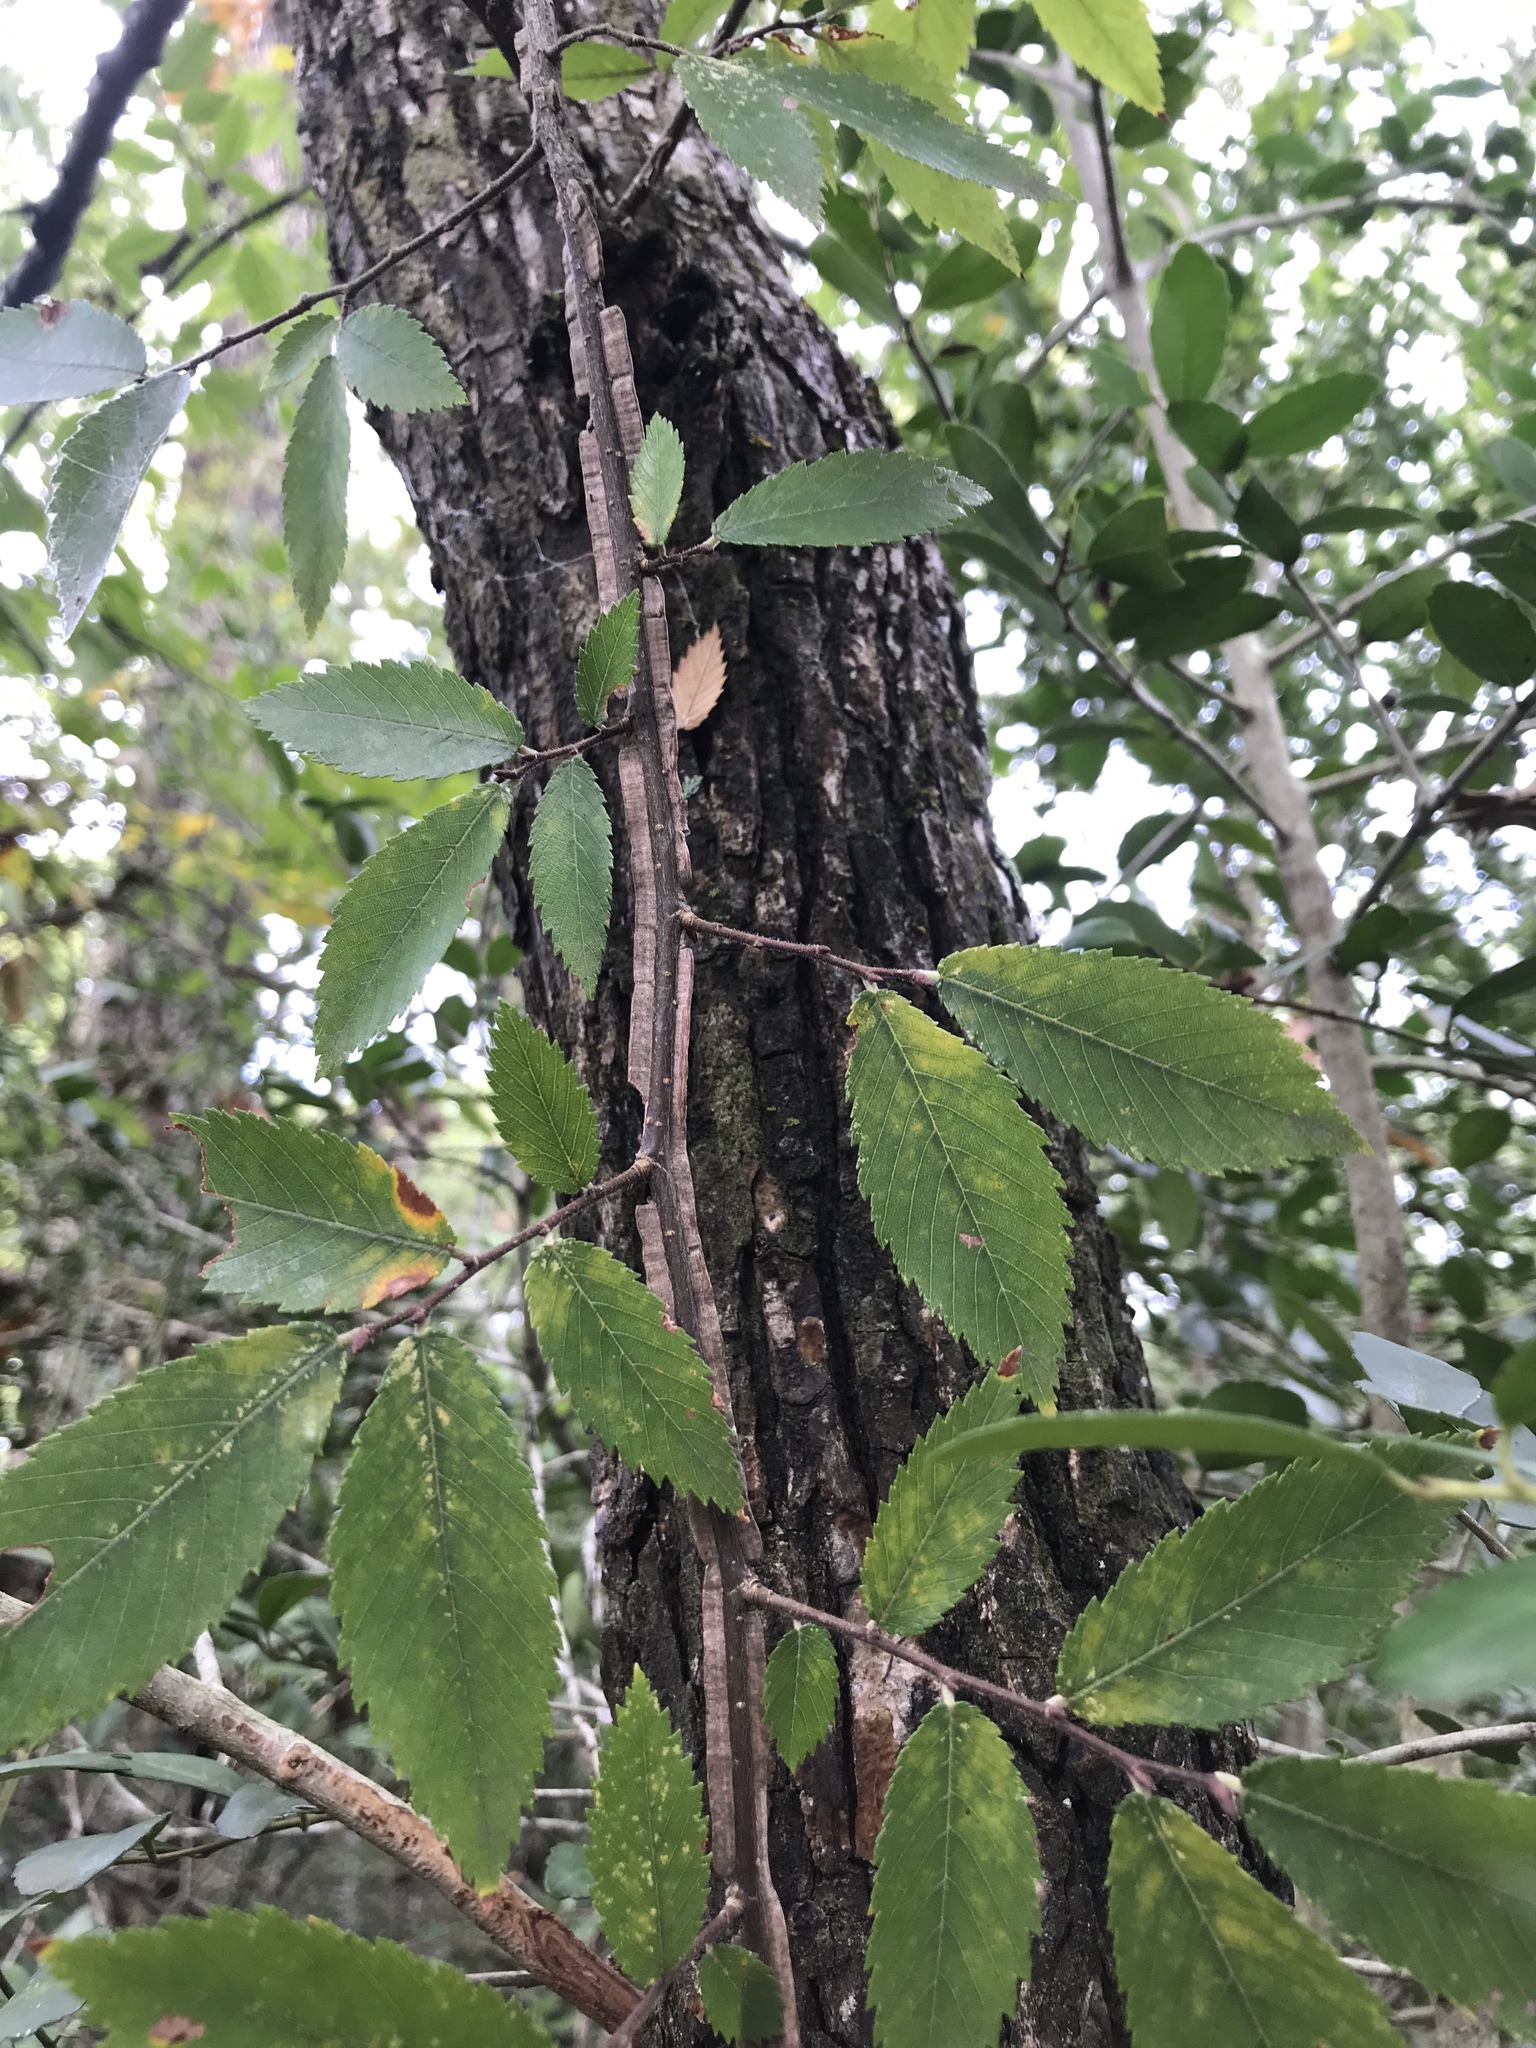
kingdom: Plantae
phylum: Tracheophyta
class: Magnoliopsida
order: Rosales
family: Ulmaceae
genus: Ulmus
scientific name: Ulmus alata
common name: Winged elm
